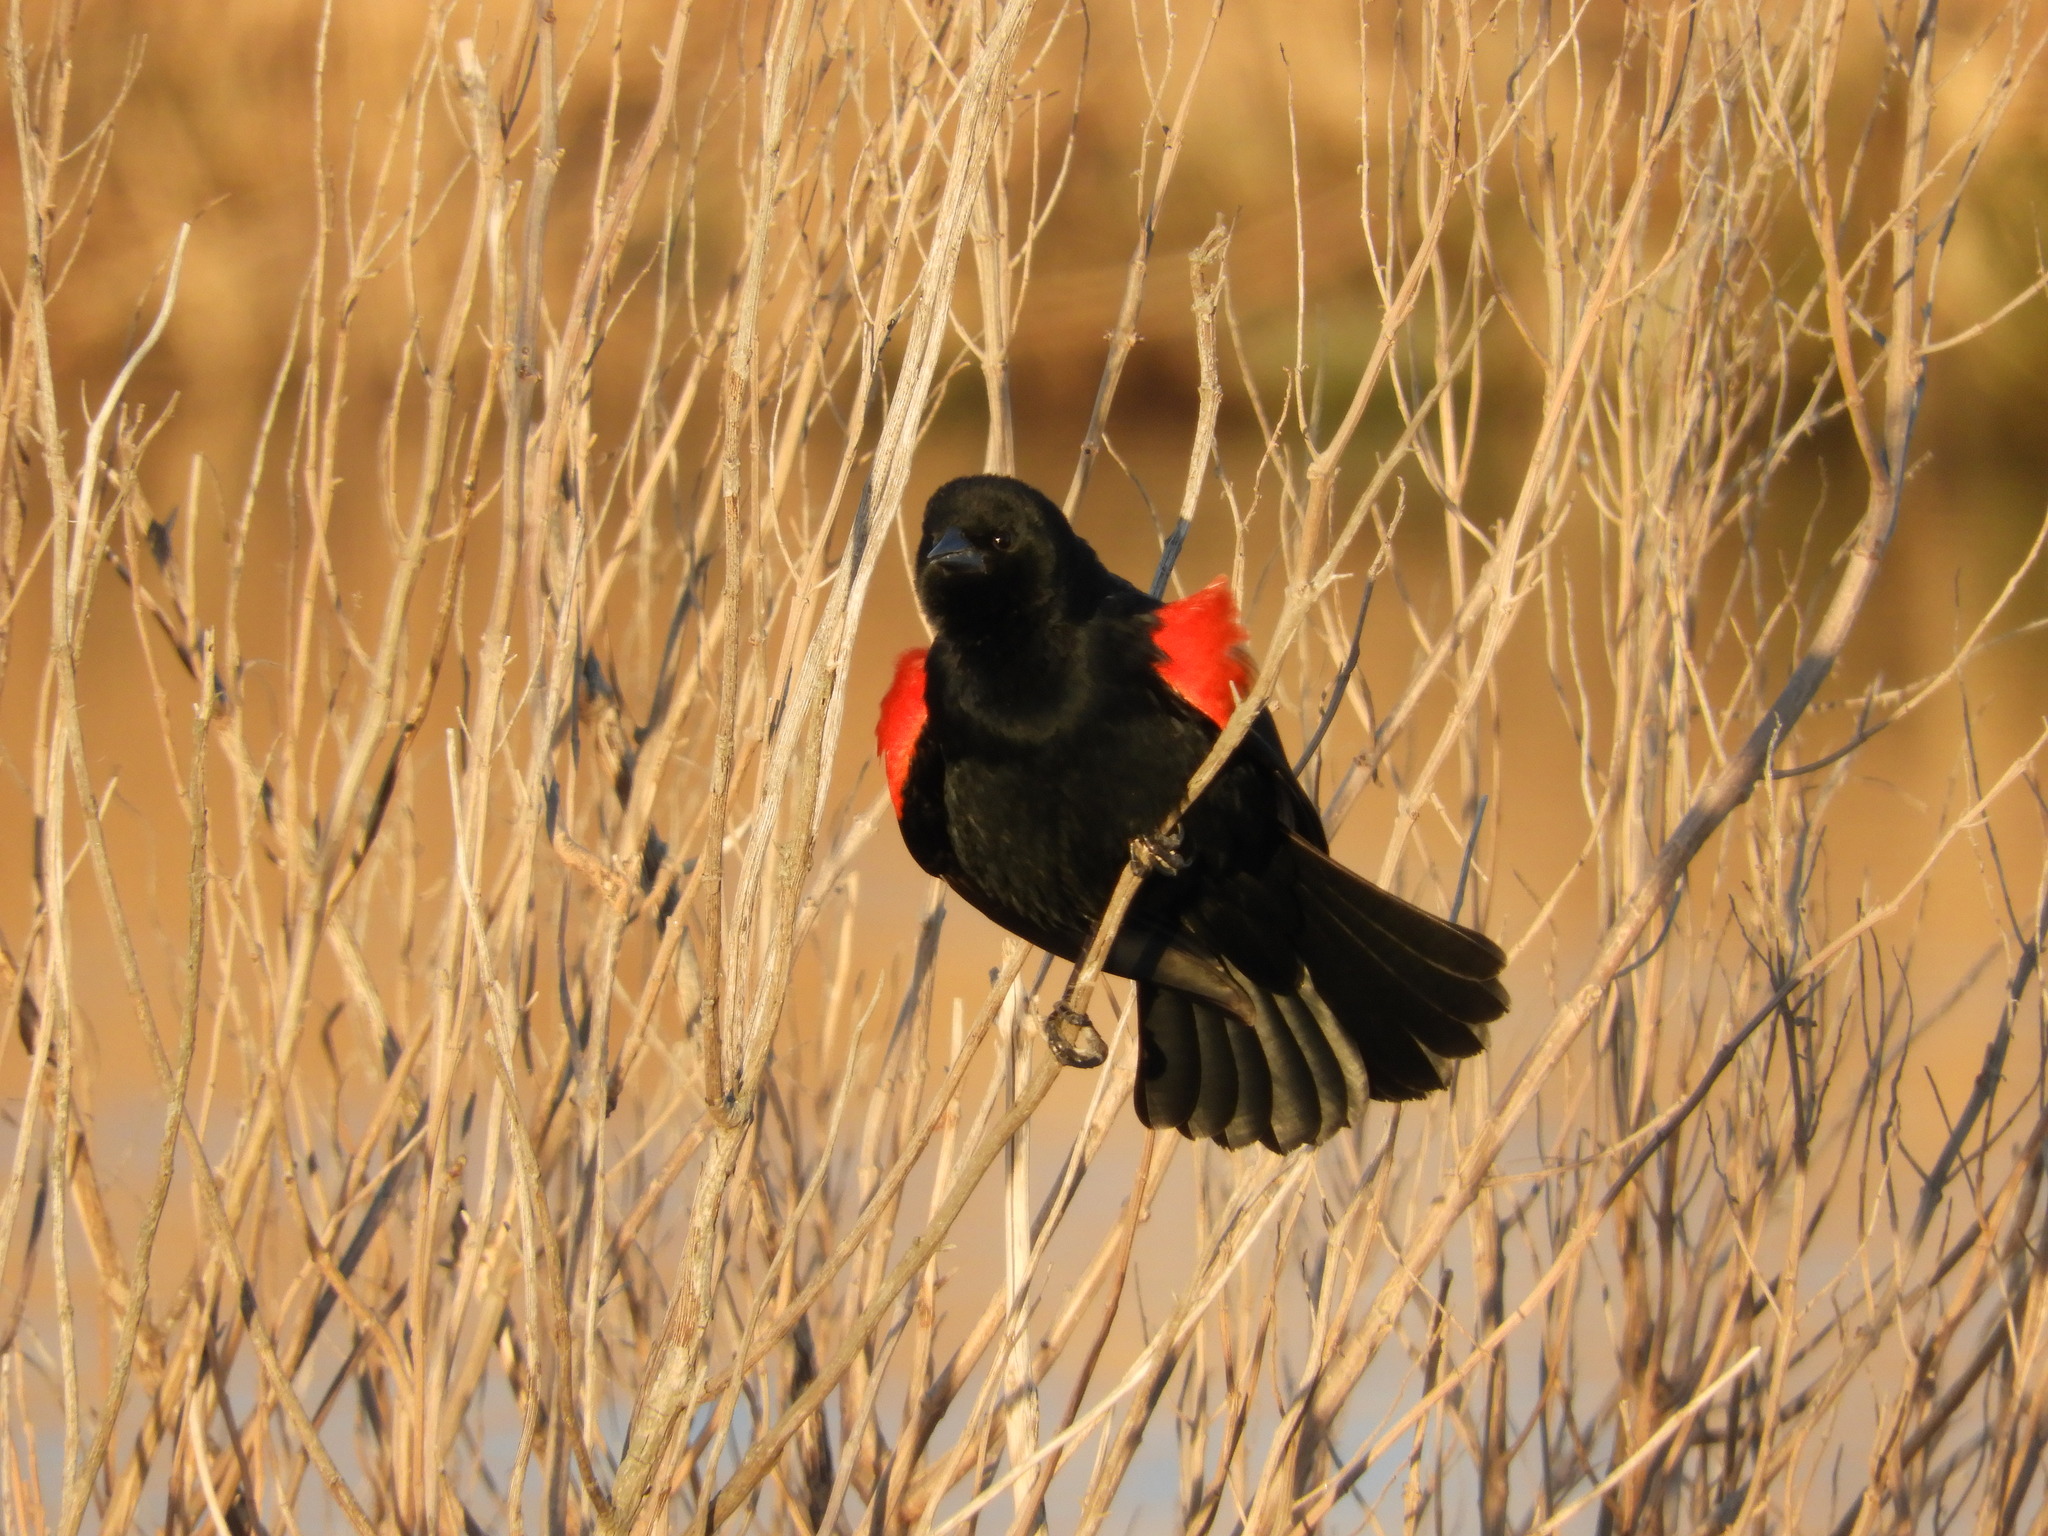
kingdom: Animalia
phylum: Chordata
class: Aves
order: Passeriformes
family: Icteridae
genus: Agelaius
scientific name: Agelaius phoeniceus
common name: Red-winged blackbird
